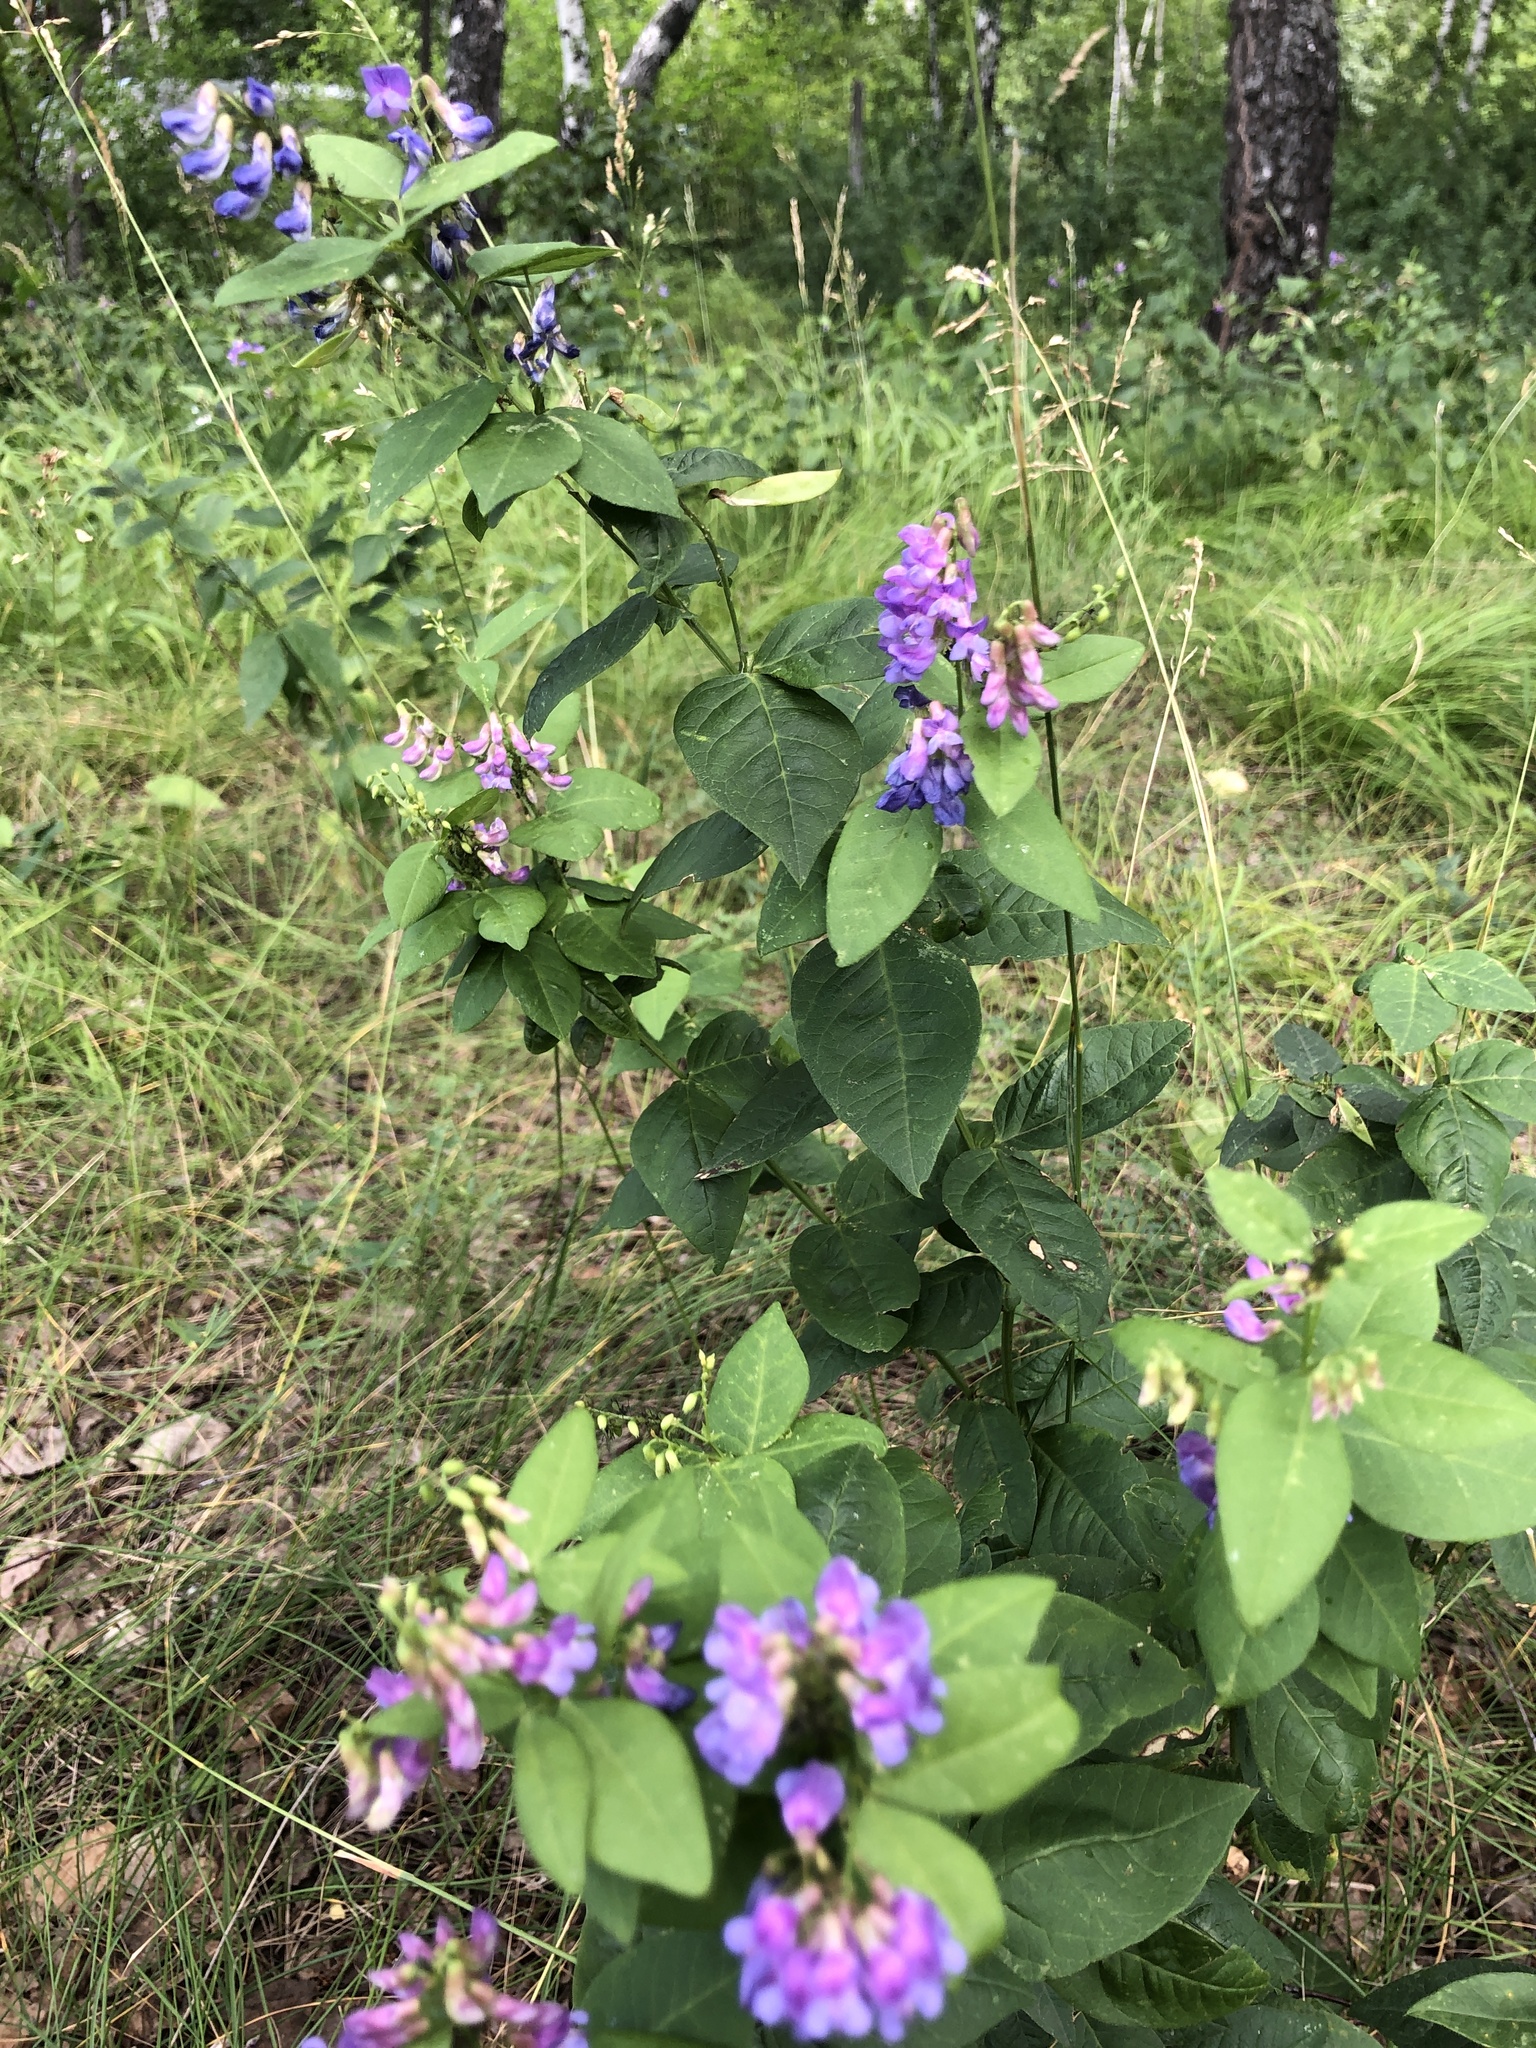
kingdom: Plantae
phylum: Tracheophyta
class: Magnoliopsida
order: Fabales
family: Fabaceae
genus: Vicia
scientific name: Vicia unijuga
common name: Two-leaf vetch
